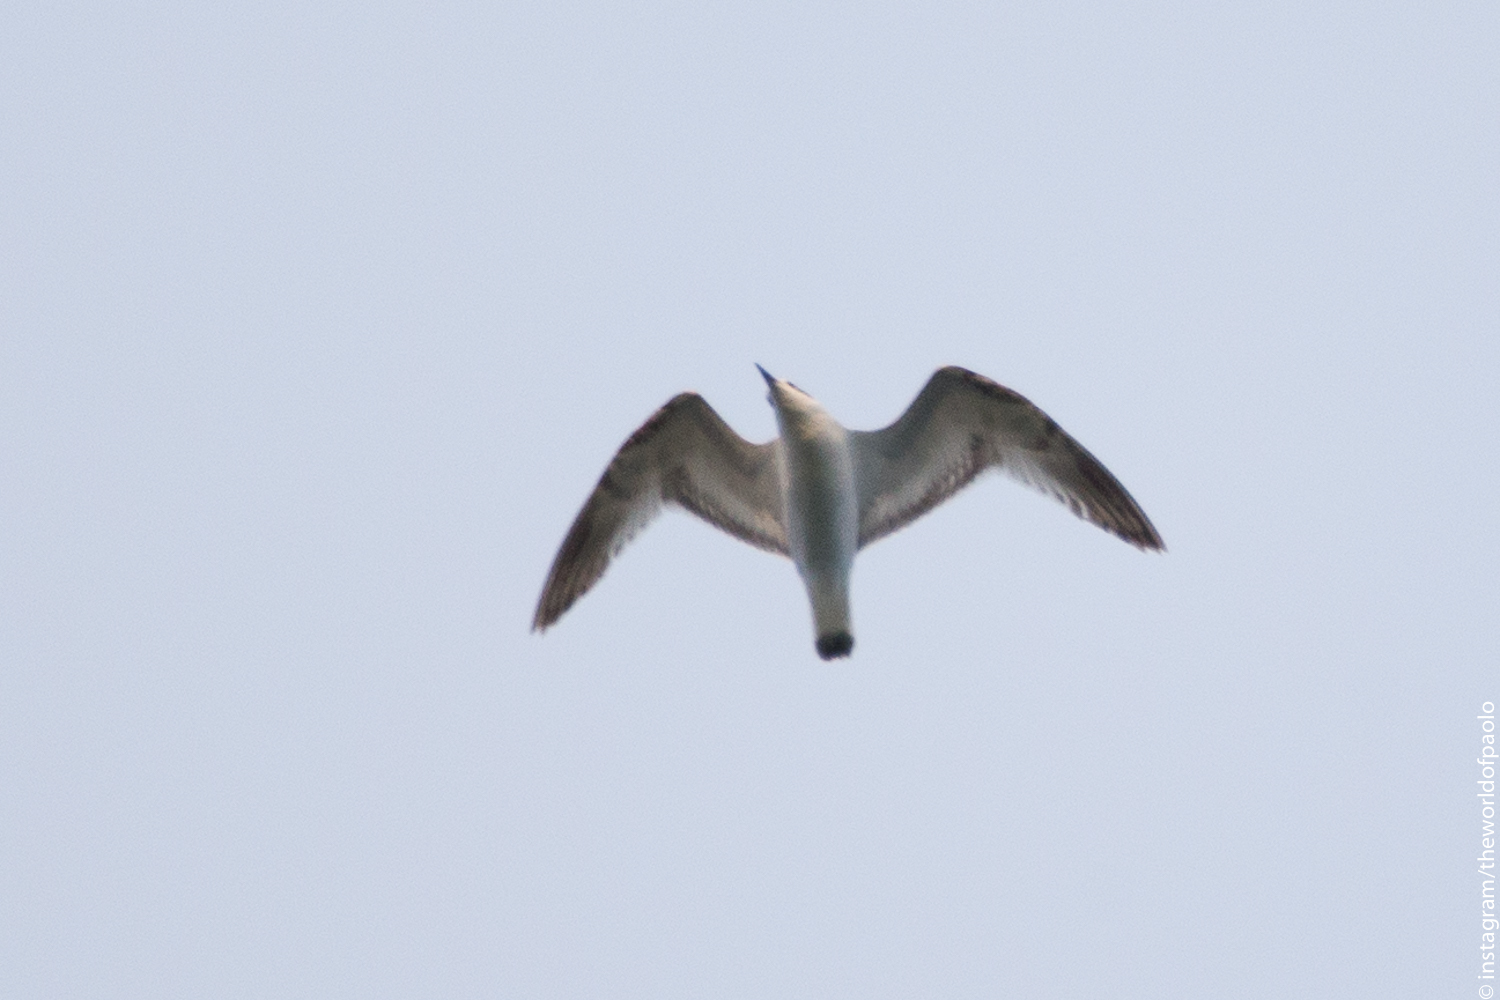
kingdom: Animalia
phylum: Chordata
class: Aves
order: Charadriiformes
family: Laridae
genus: Chroicocephalus
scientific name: Chroicocephalus ridibundus
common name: Black-headed gull
